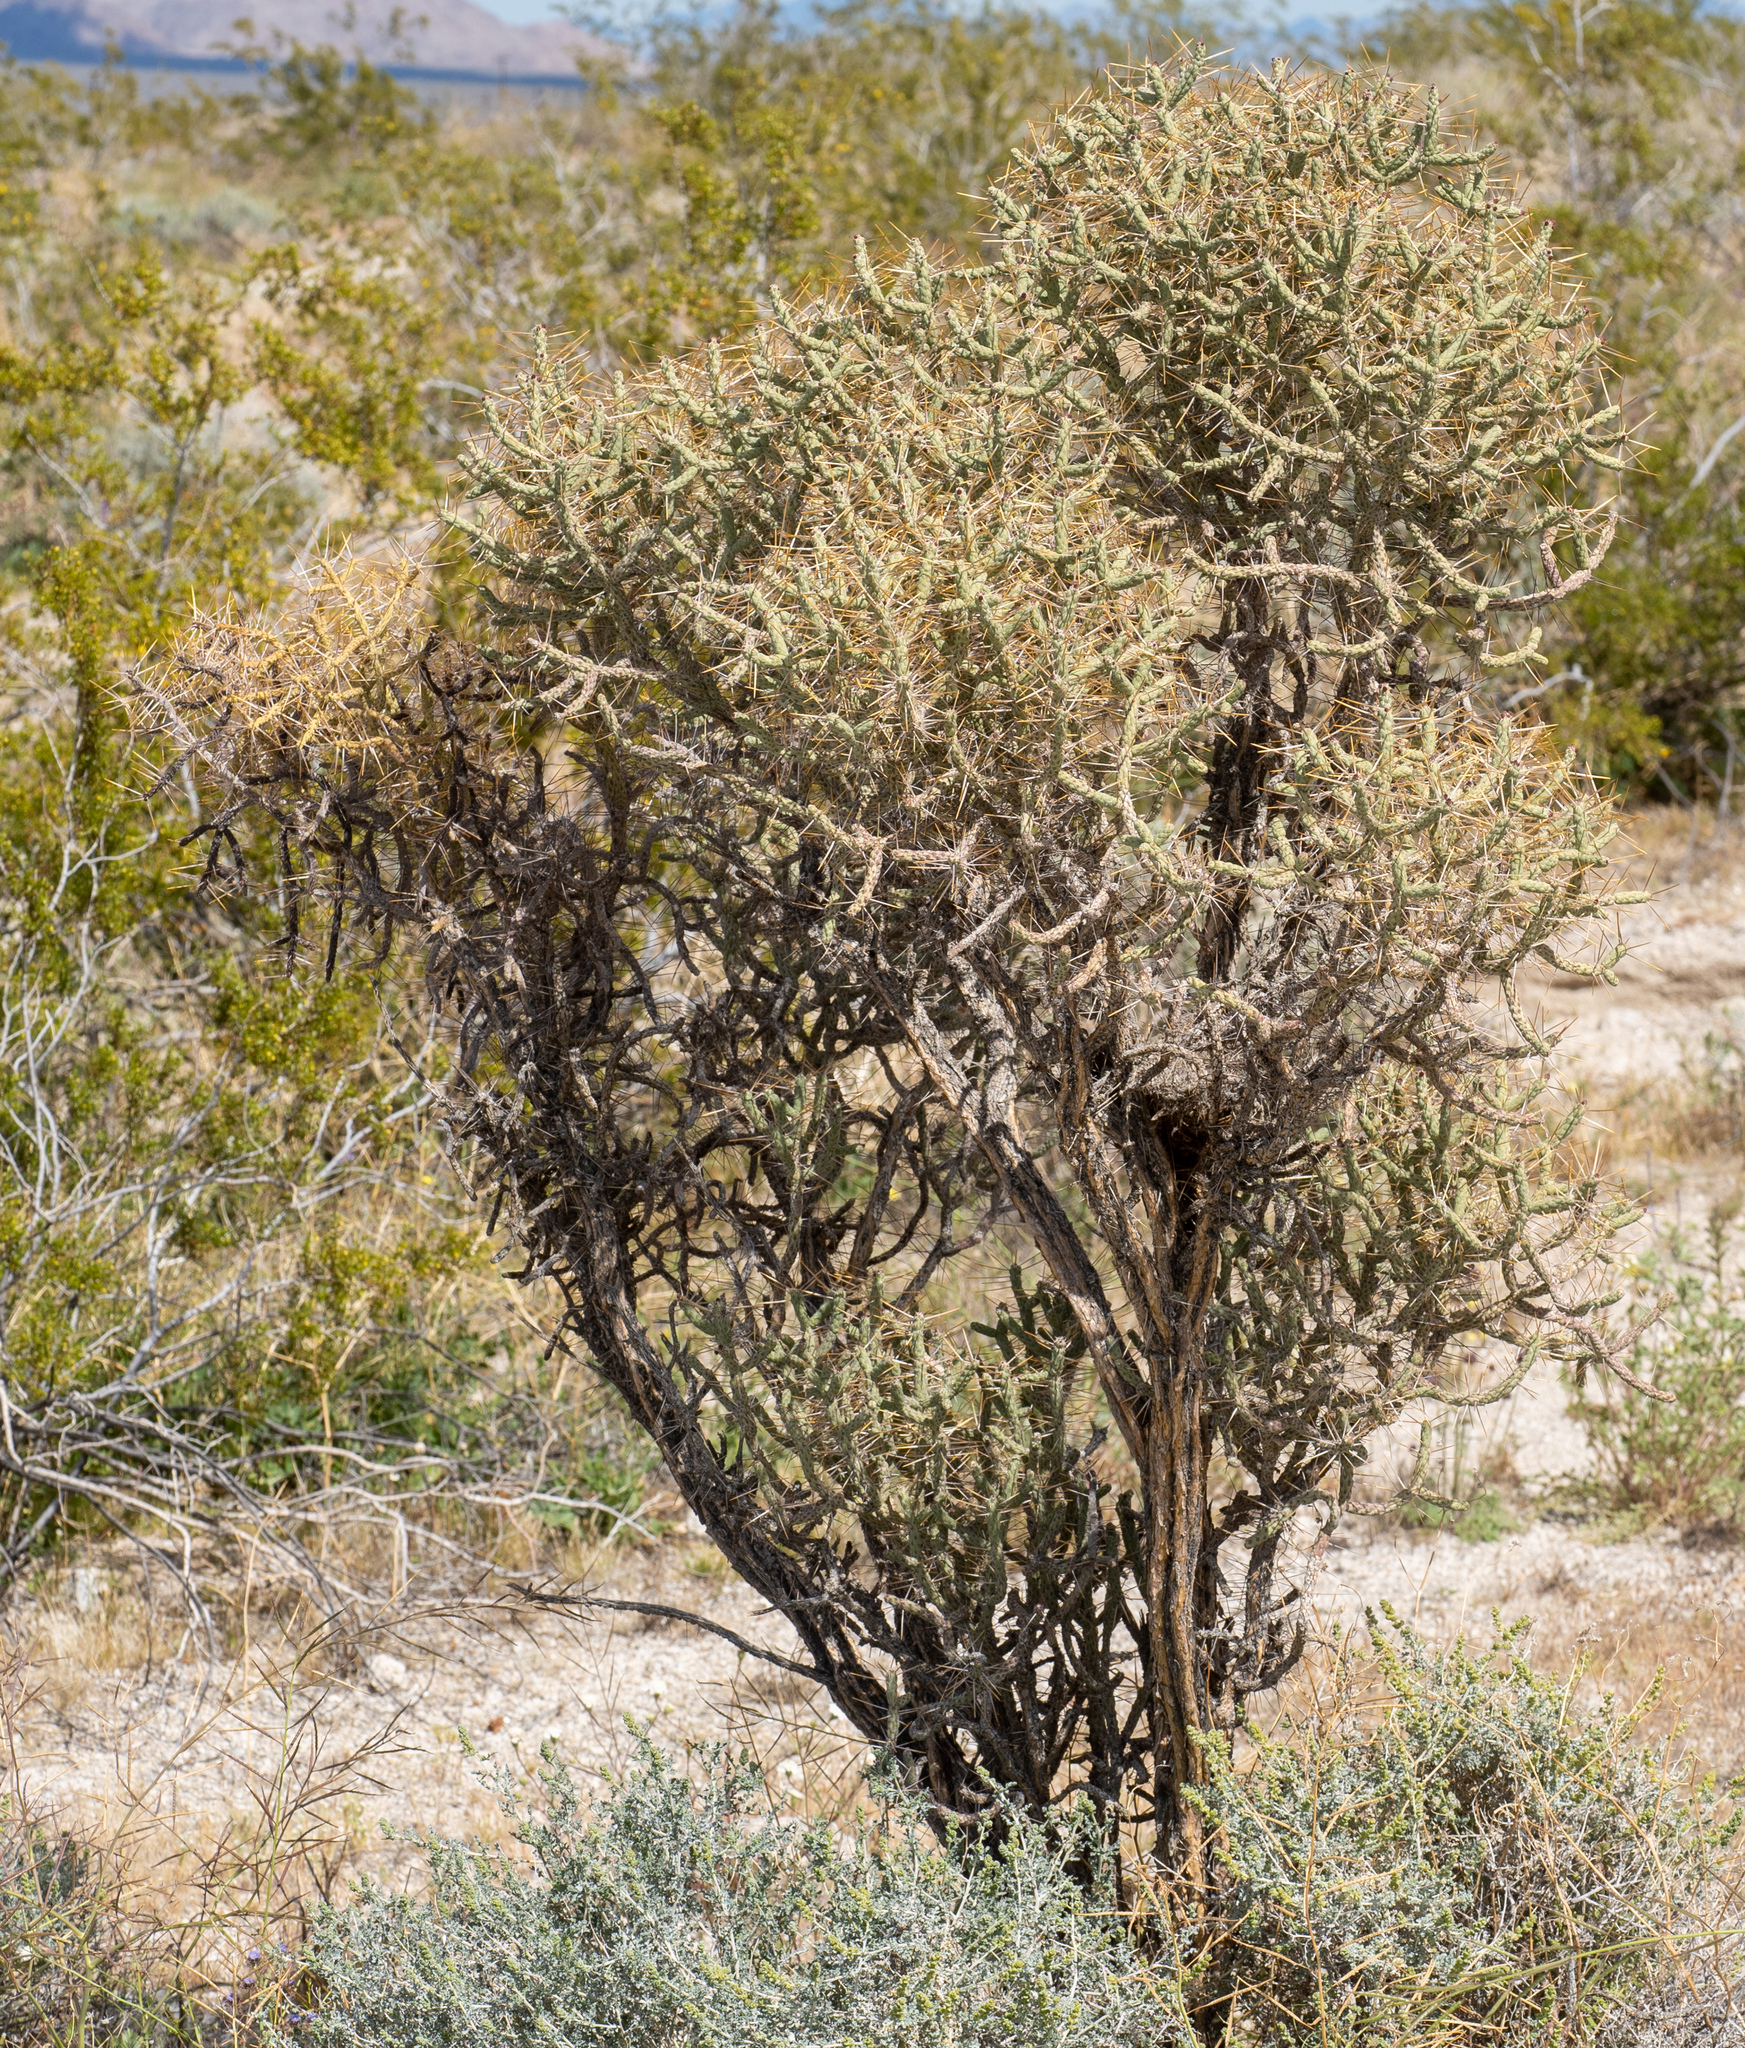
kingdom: Plantae
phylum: Tracheophyta
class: Magnoliopsida
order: Caryophyllales
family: Cactaceae
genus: Cylindropuntia
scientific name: Cylindropuntia ramosissima
